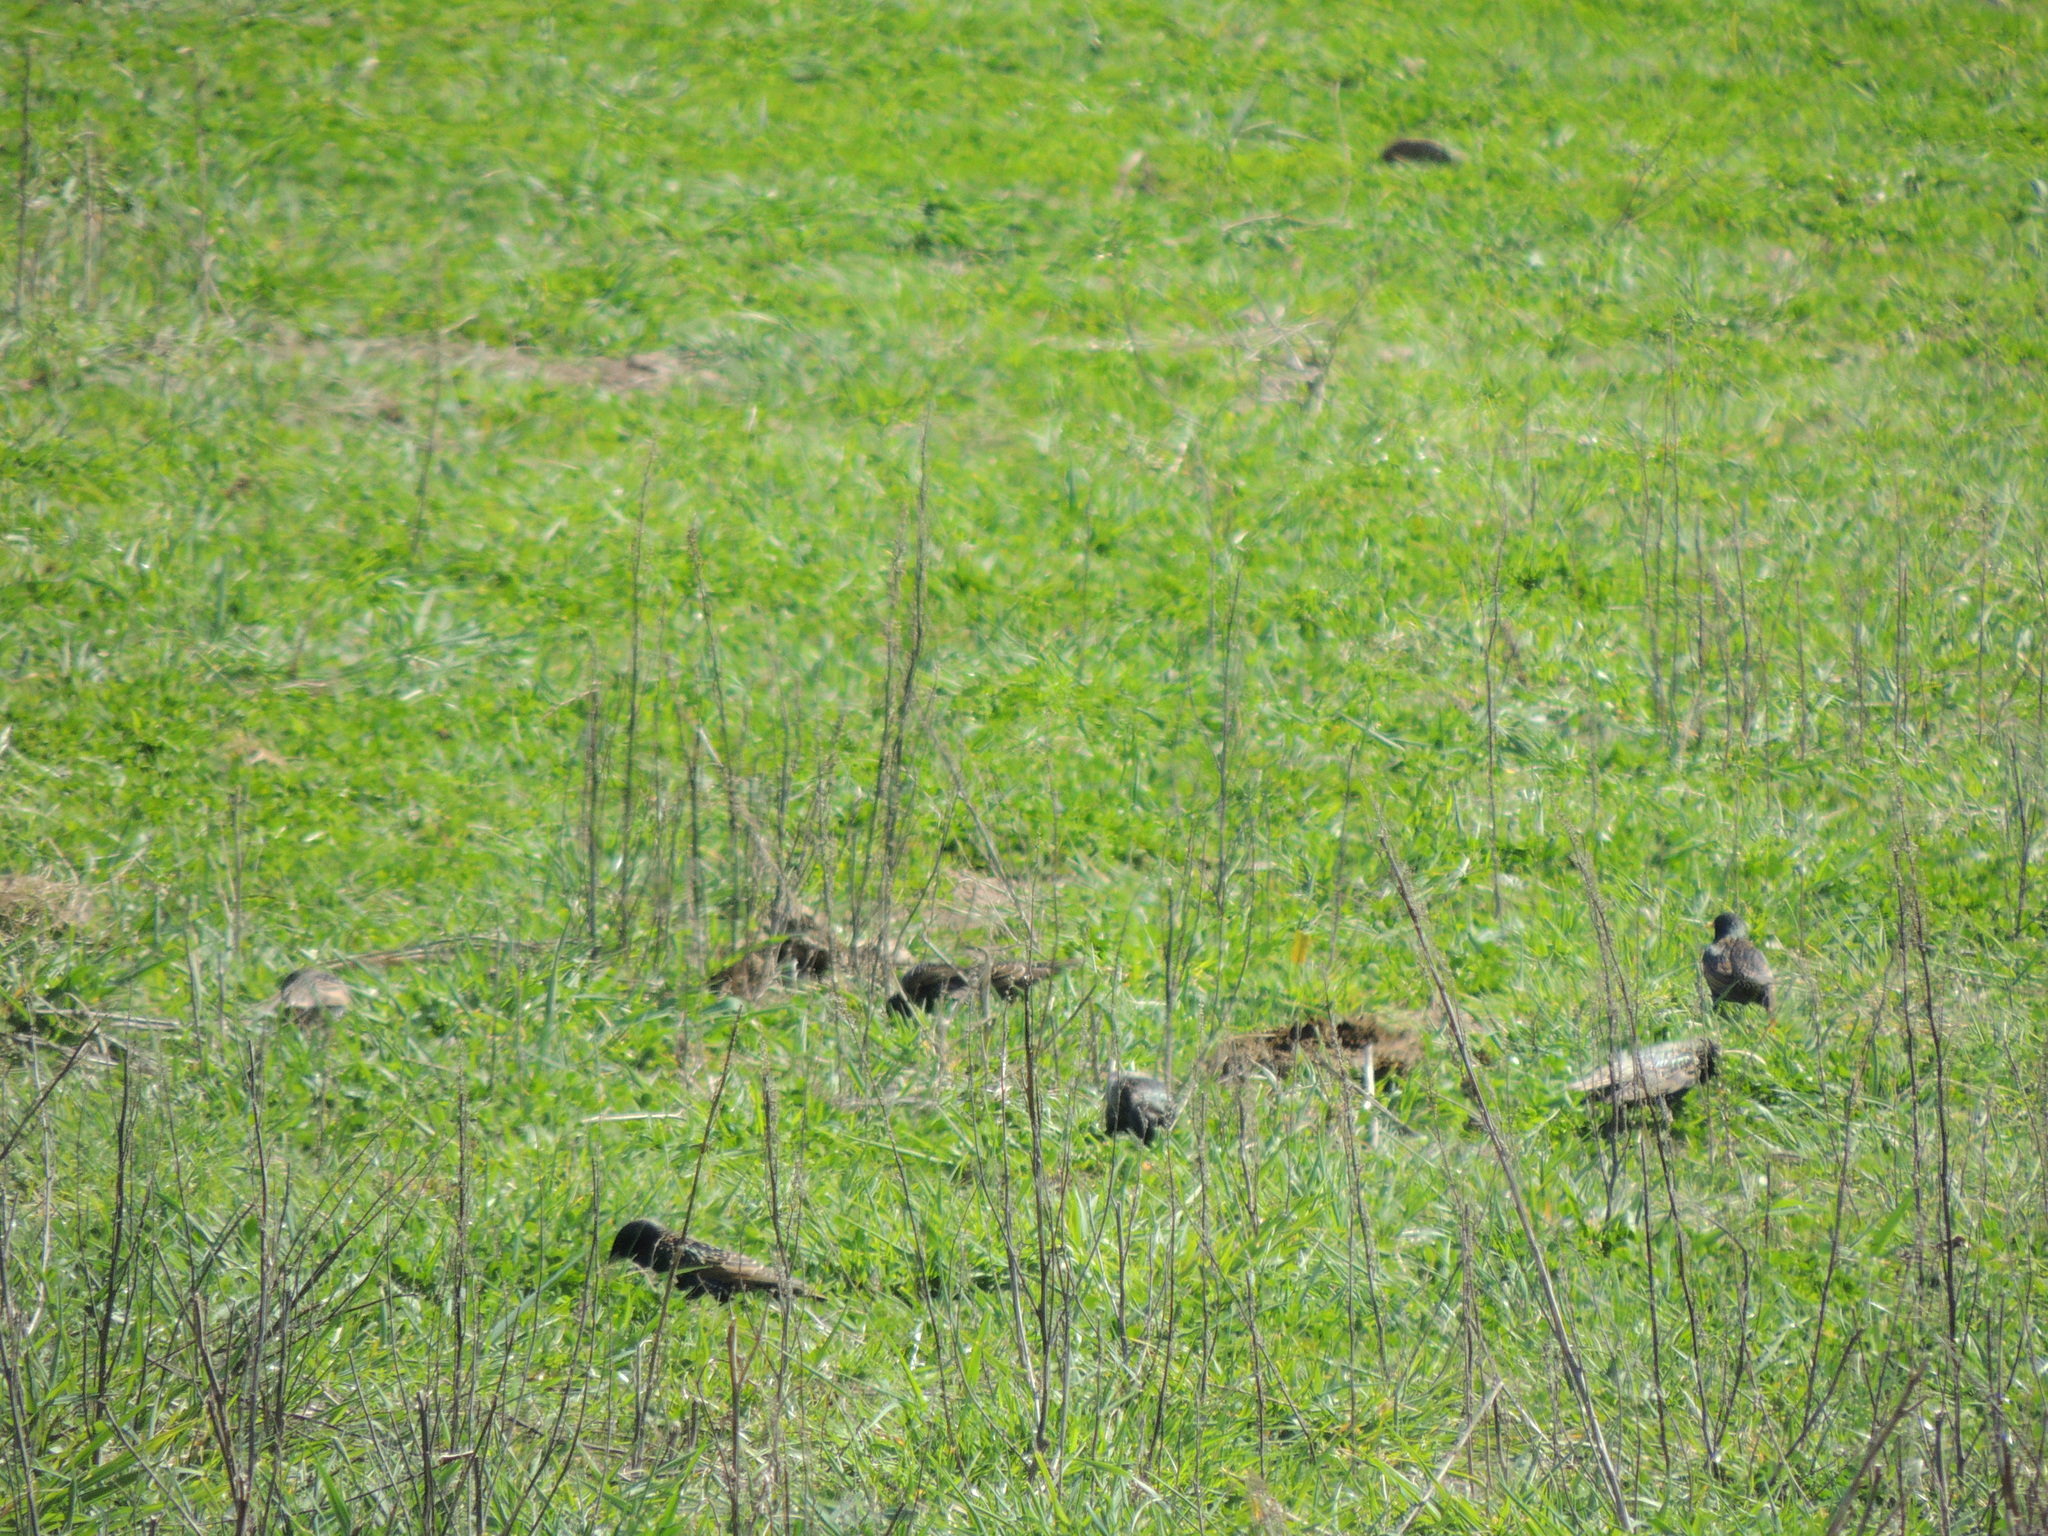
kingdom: Animalia
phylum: Chordata
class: Aves
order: Passeriformes
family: Sturnidae
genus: Sturnus
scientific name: Sturnus vulgaris
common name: Common starling
